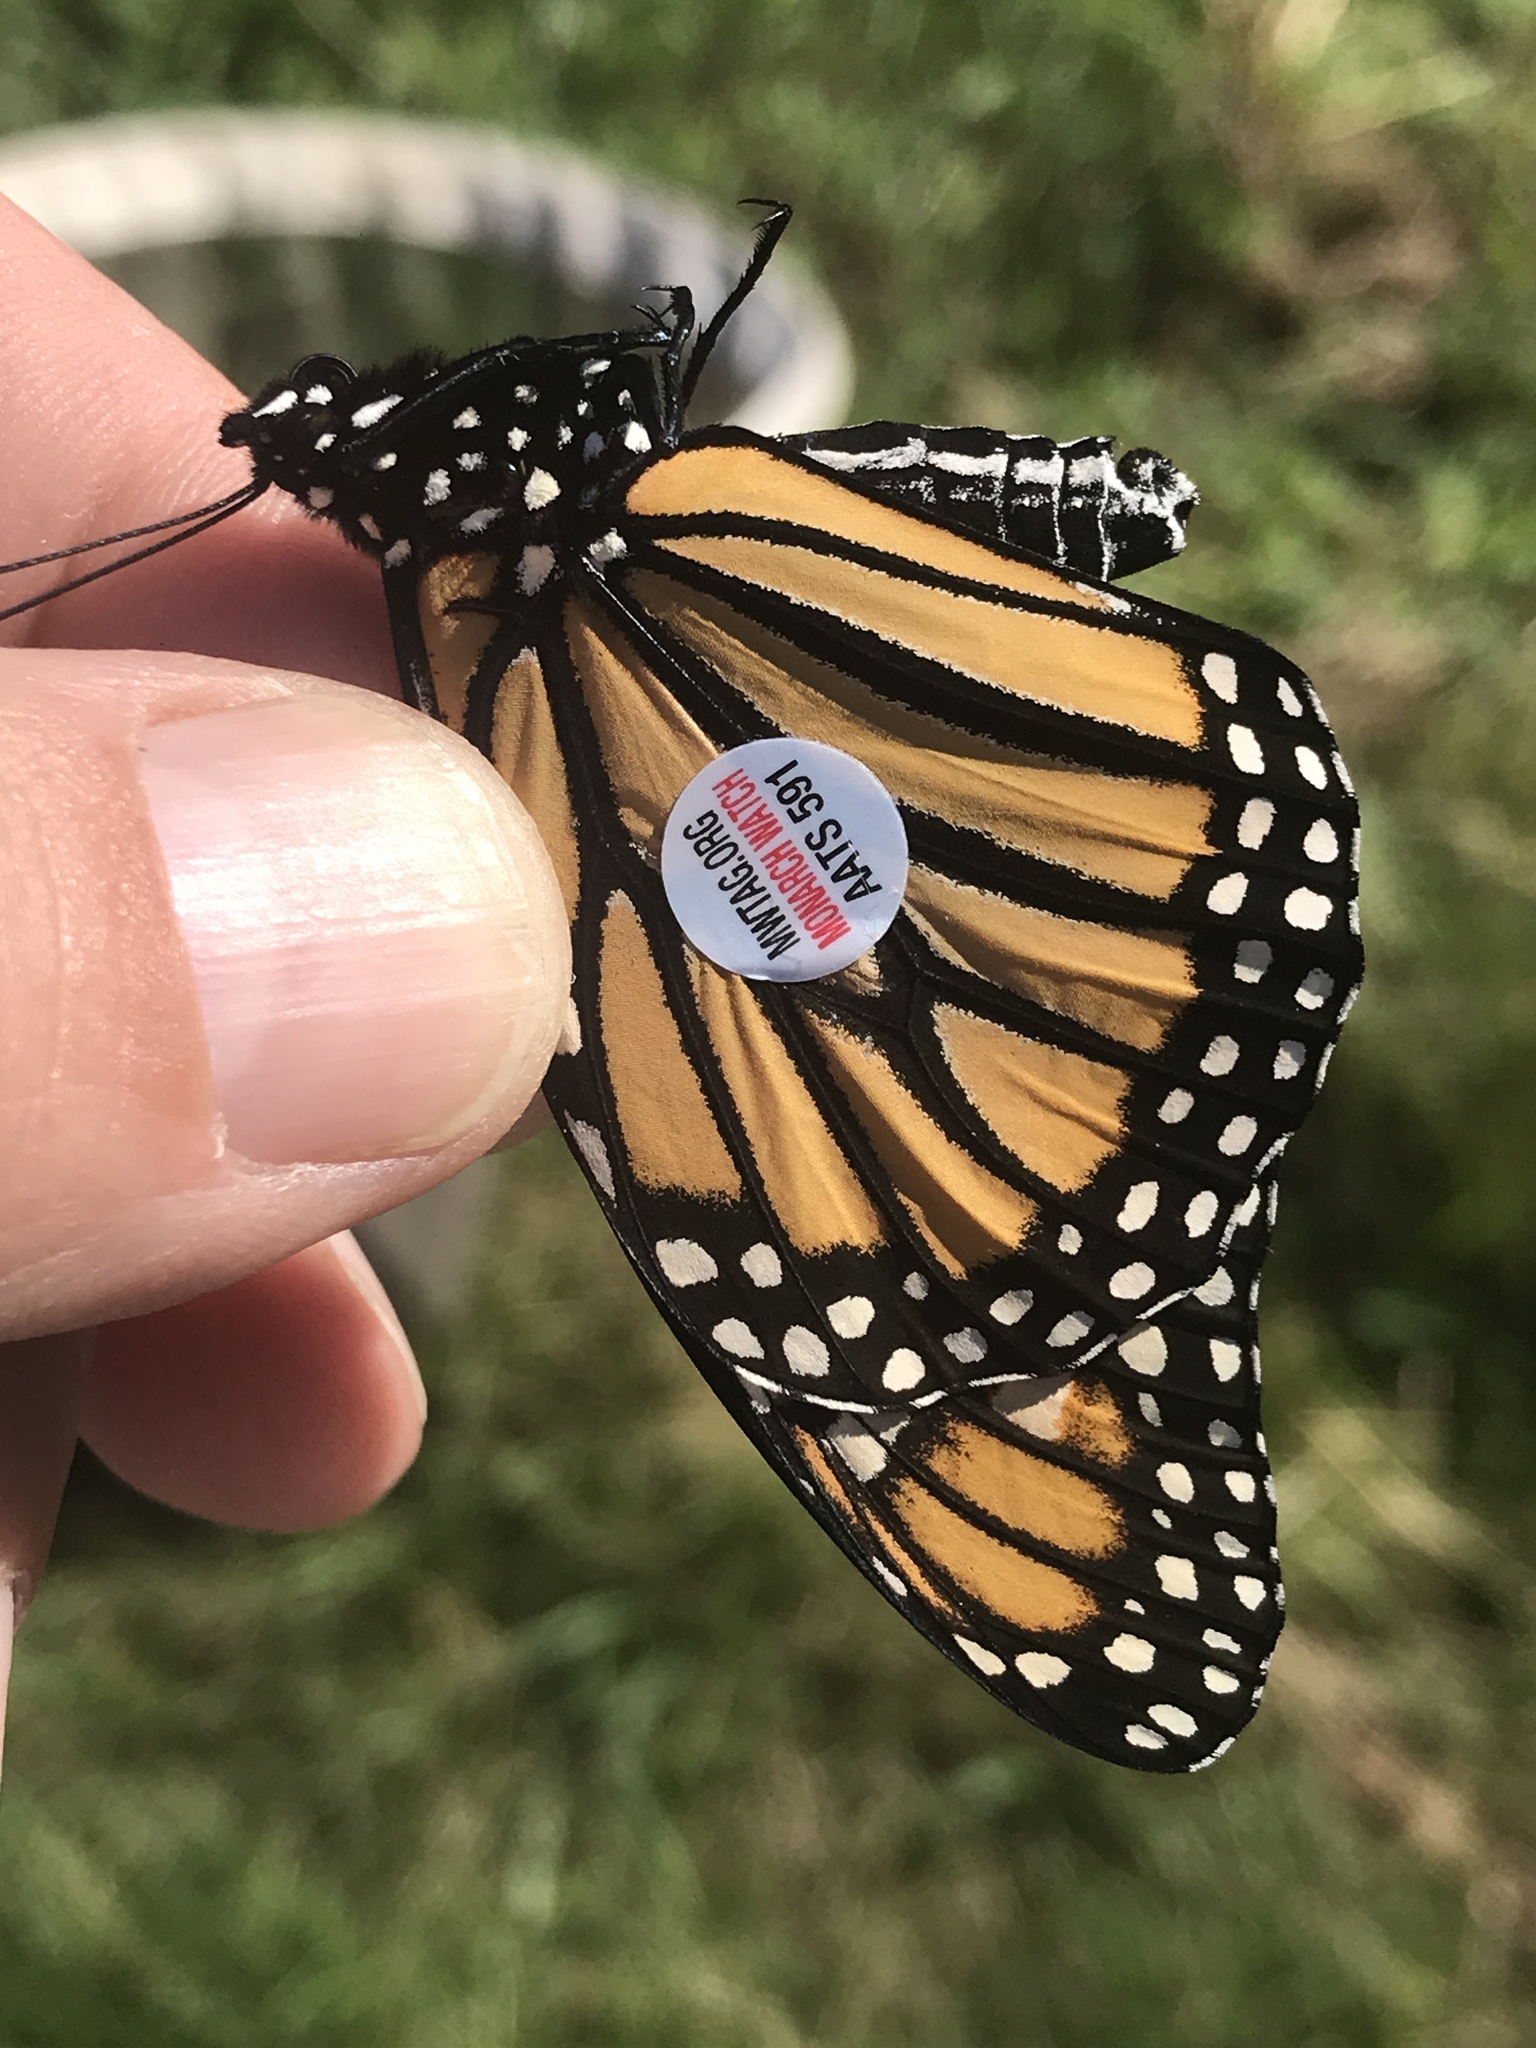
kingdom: Animalia
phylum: Arthropoda
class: Insecta
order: Lepidoptera
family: Nymphalidae
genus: Danaus
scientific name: Danaus plexippus
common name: Monarch
